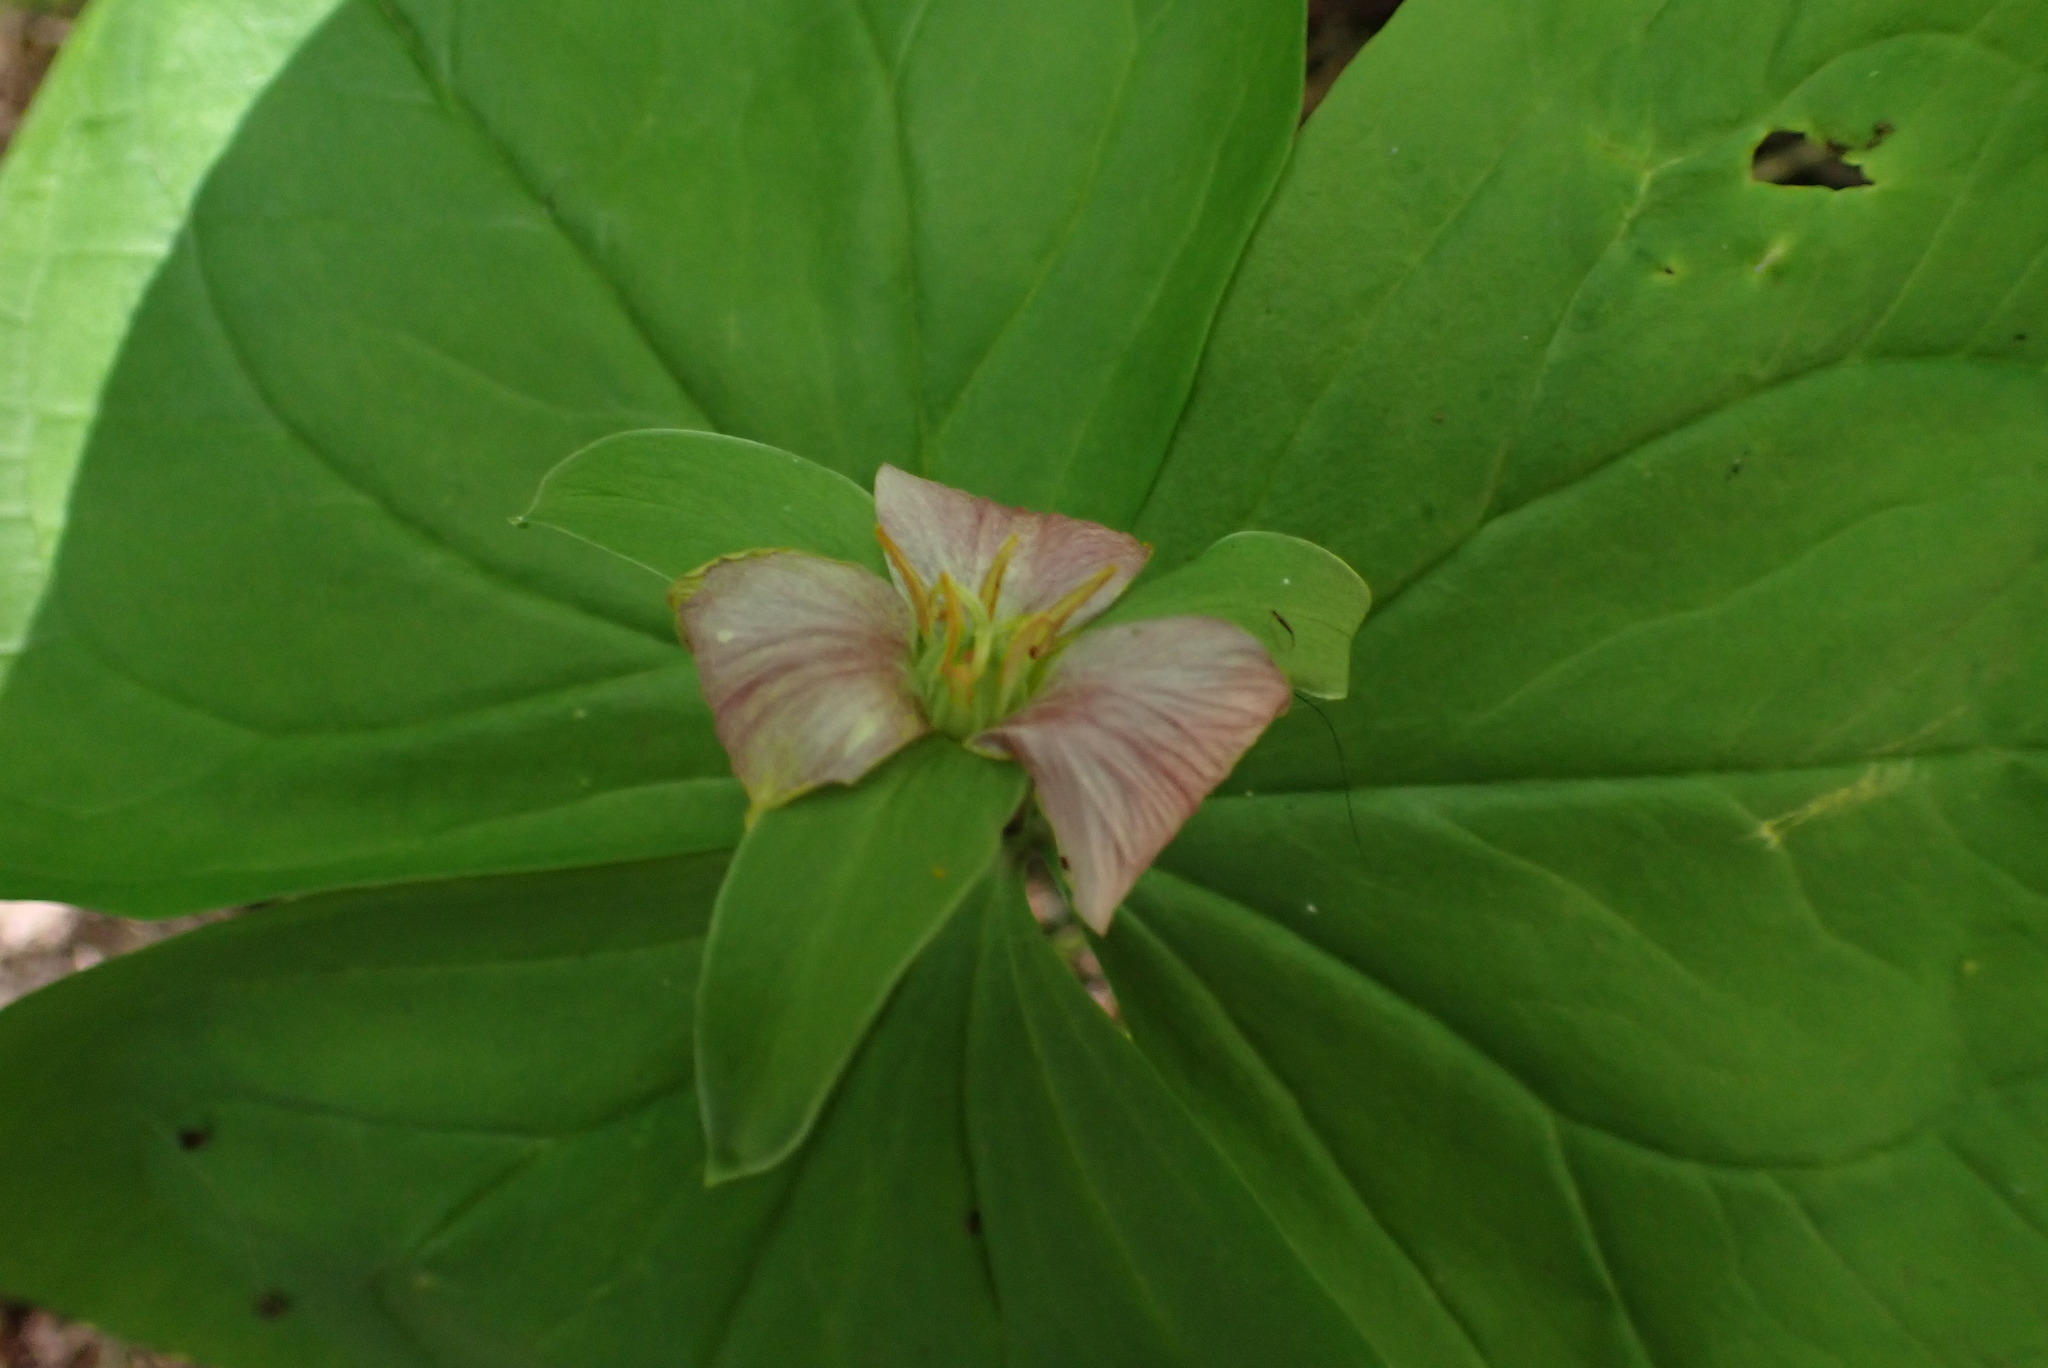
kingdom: Plantae
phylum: Tracheophyta
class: Liliopsida
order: Liliales
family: Melanthiaceae
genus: Trillium
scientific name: Trillium ovatum
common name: Pacific trillium
